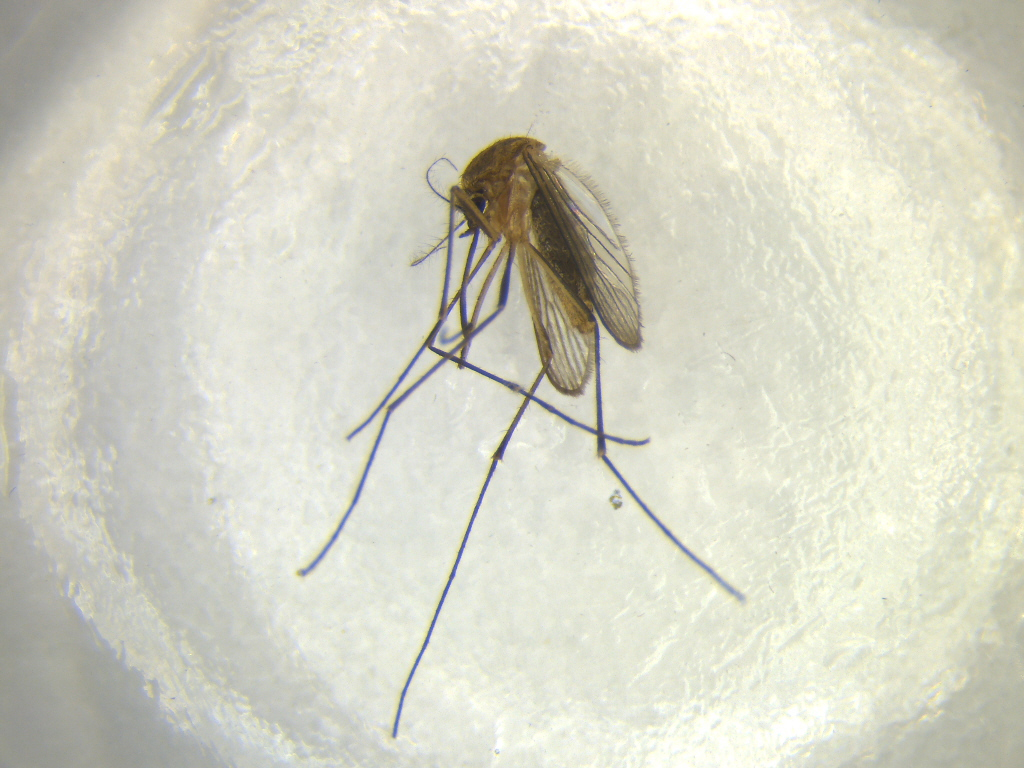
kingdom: Animalia
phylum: Arthropoda
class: Insecta
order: Diptera
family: Culicidae
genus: Culex
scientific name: Culex quinquefasciatus
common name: Southern house mosquito
